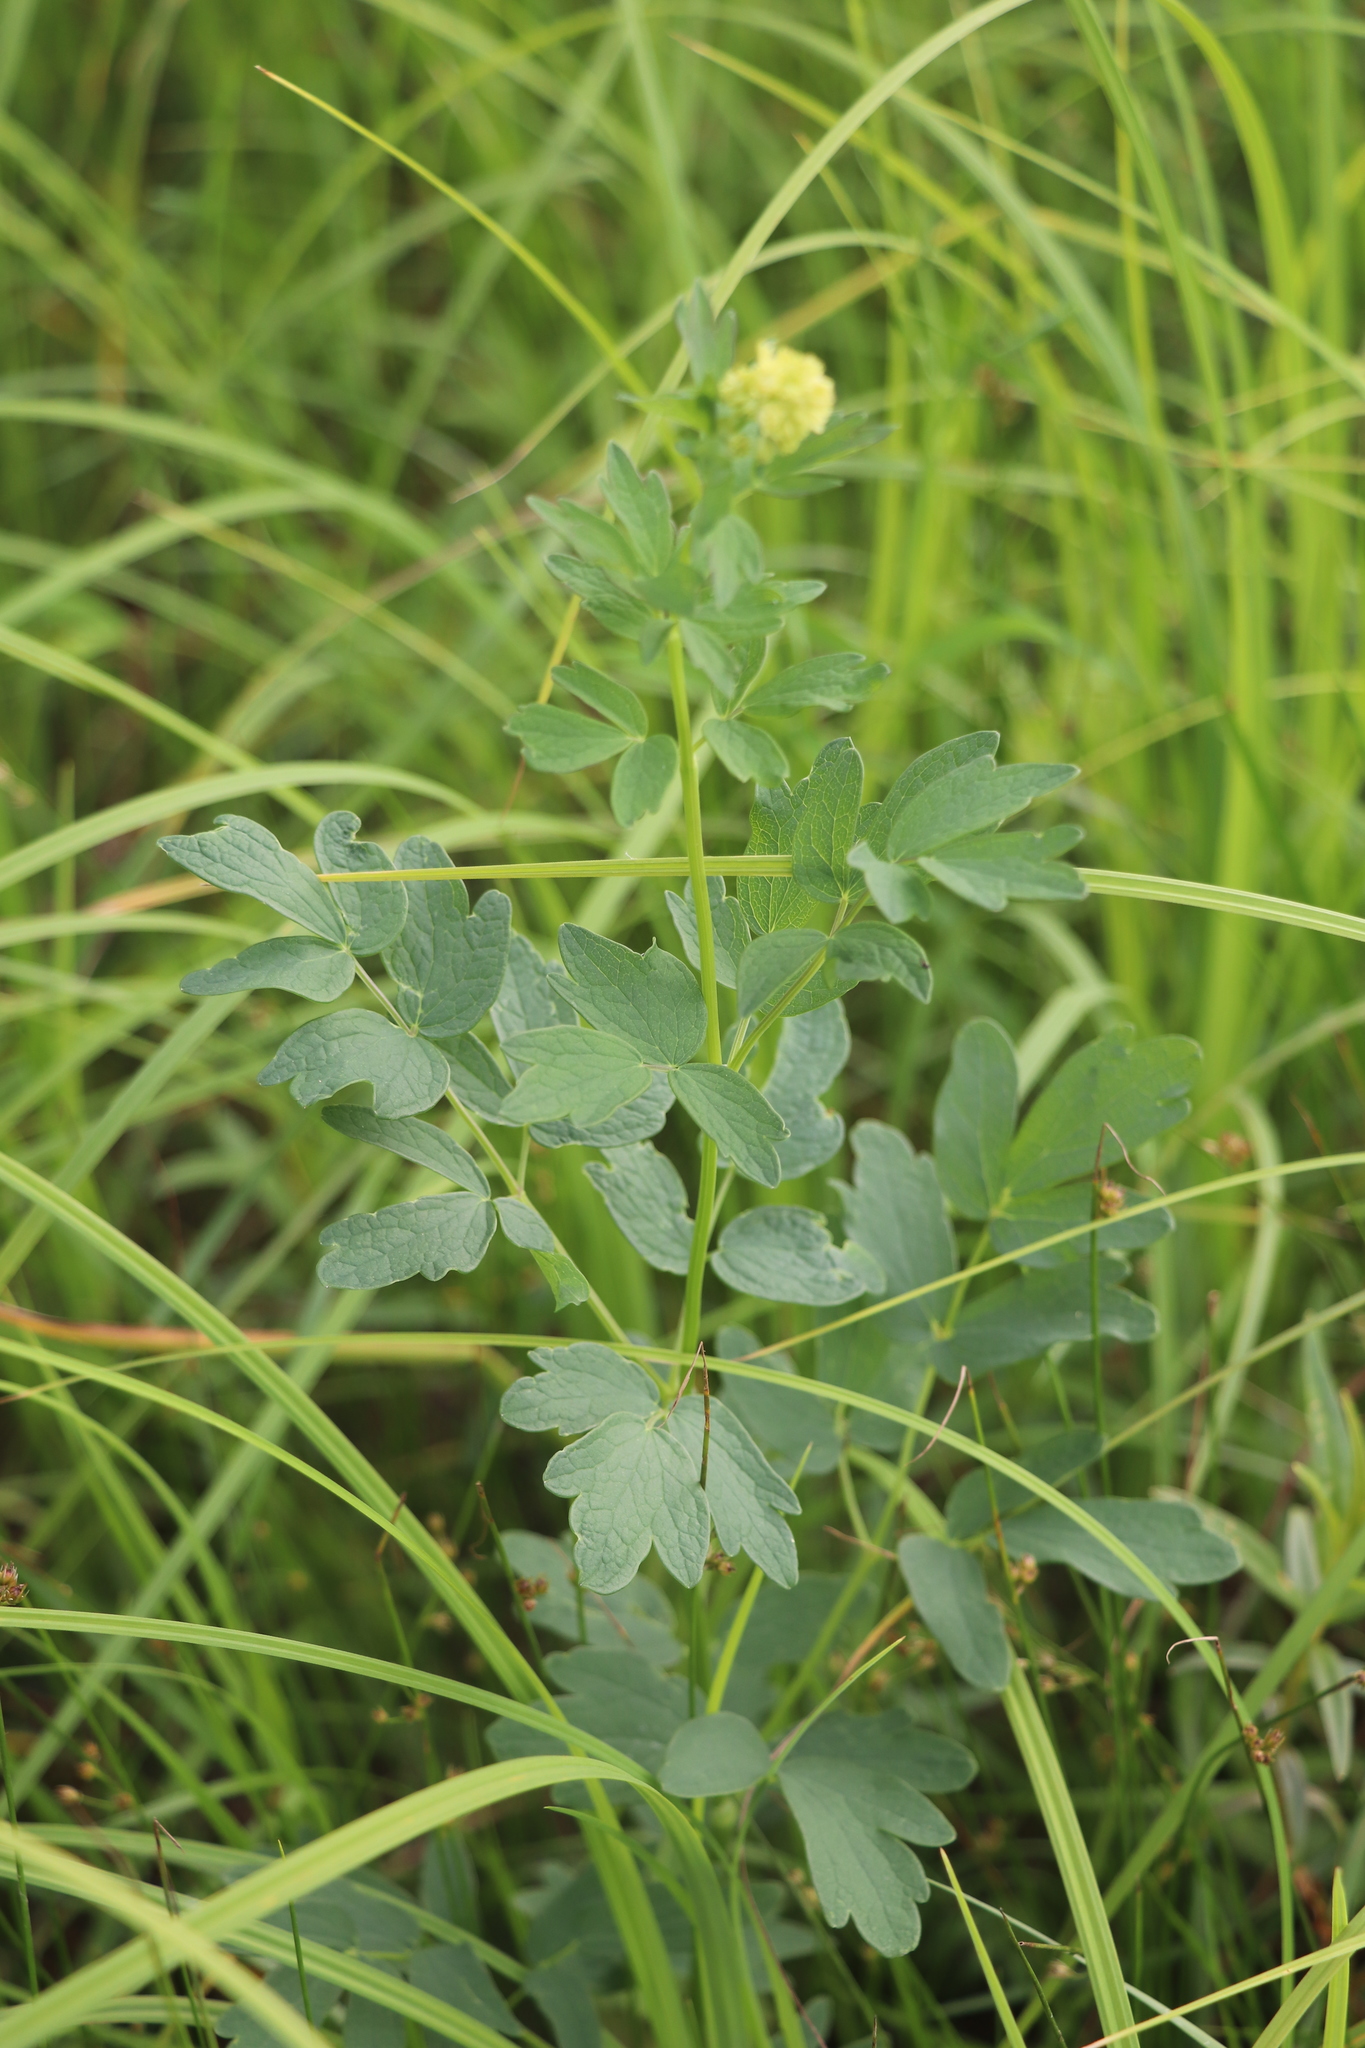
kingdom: Plantae
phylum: Tracheophyta
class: Magnoliopsida
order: Ranunculales
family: Ranunculaceae
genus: Thalictrum
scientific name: Thalictrum simplex
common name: Small meadow-rue
